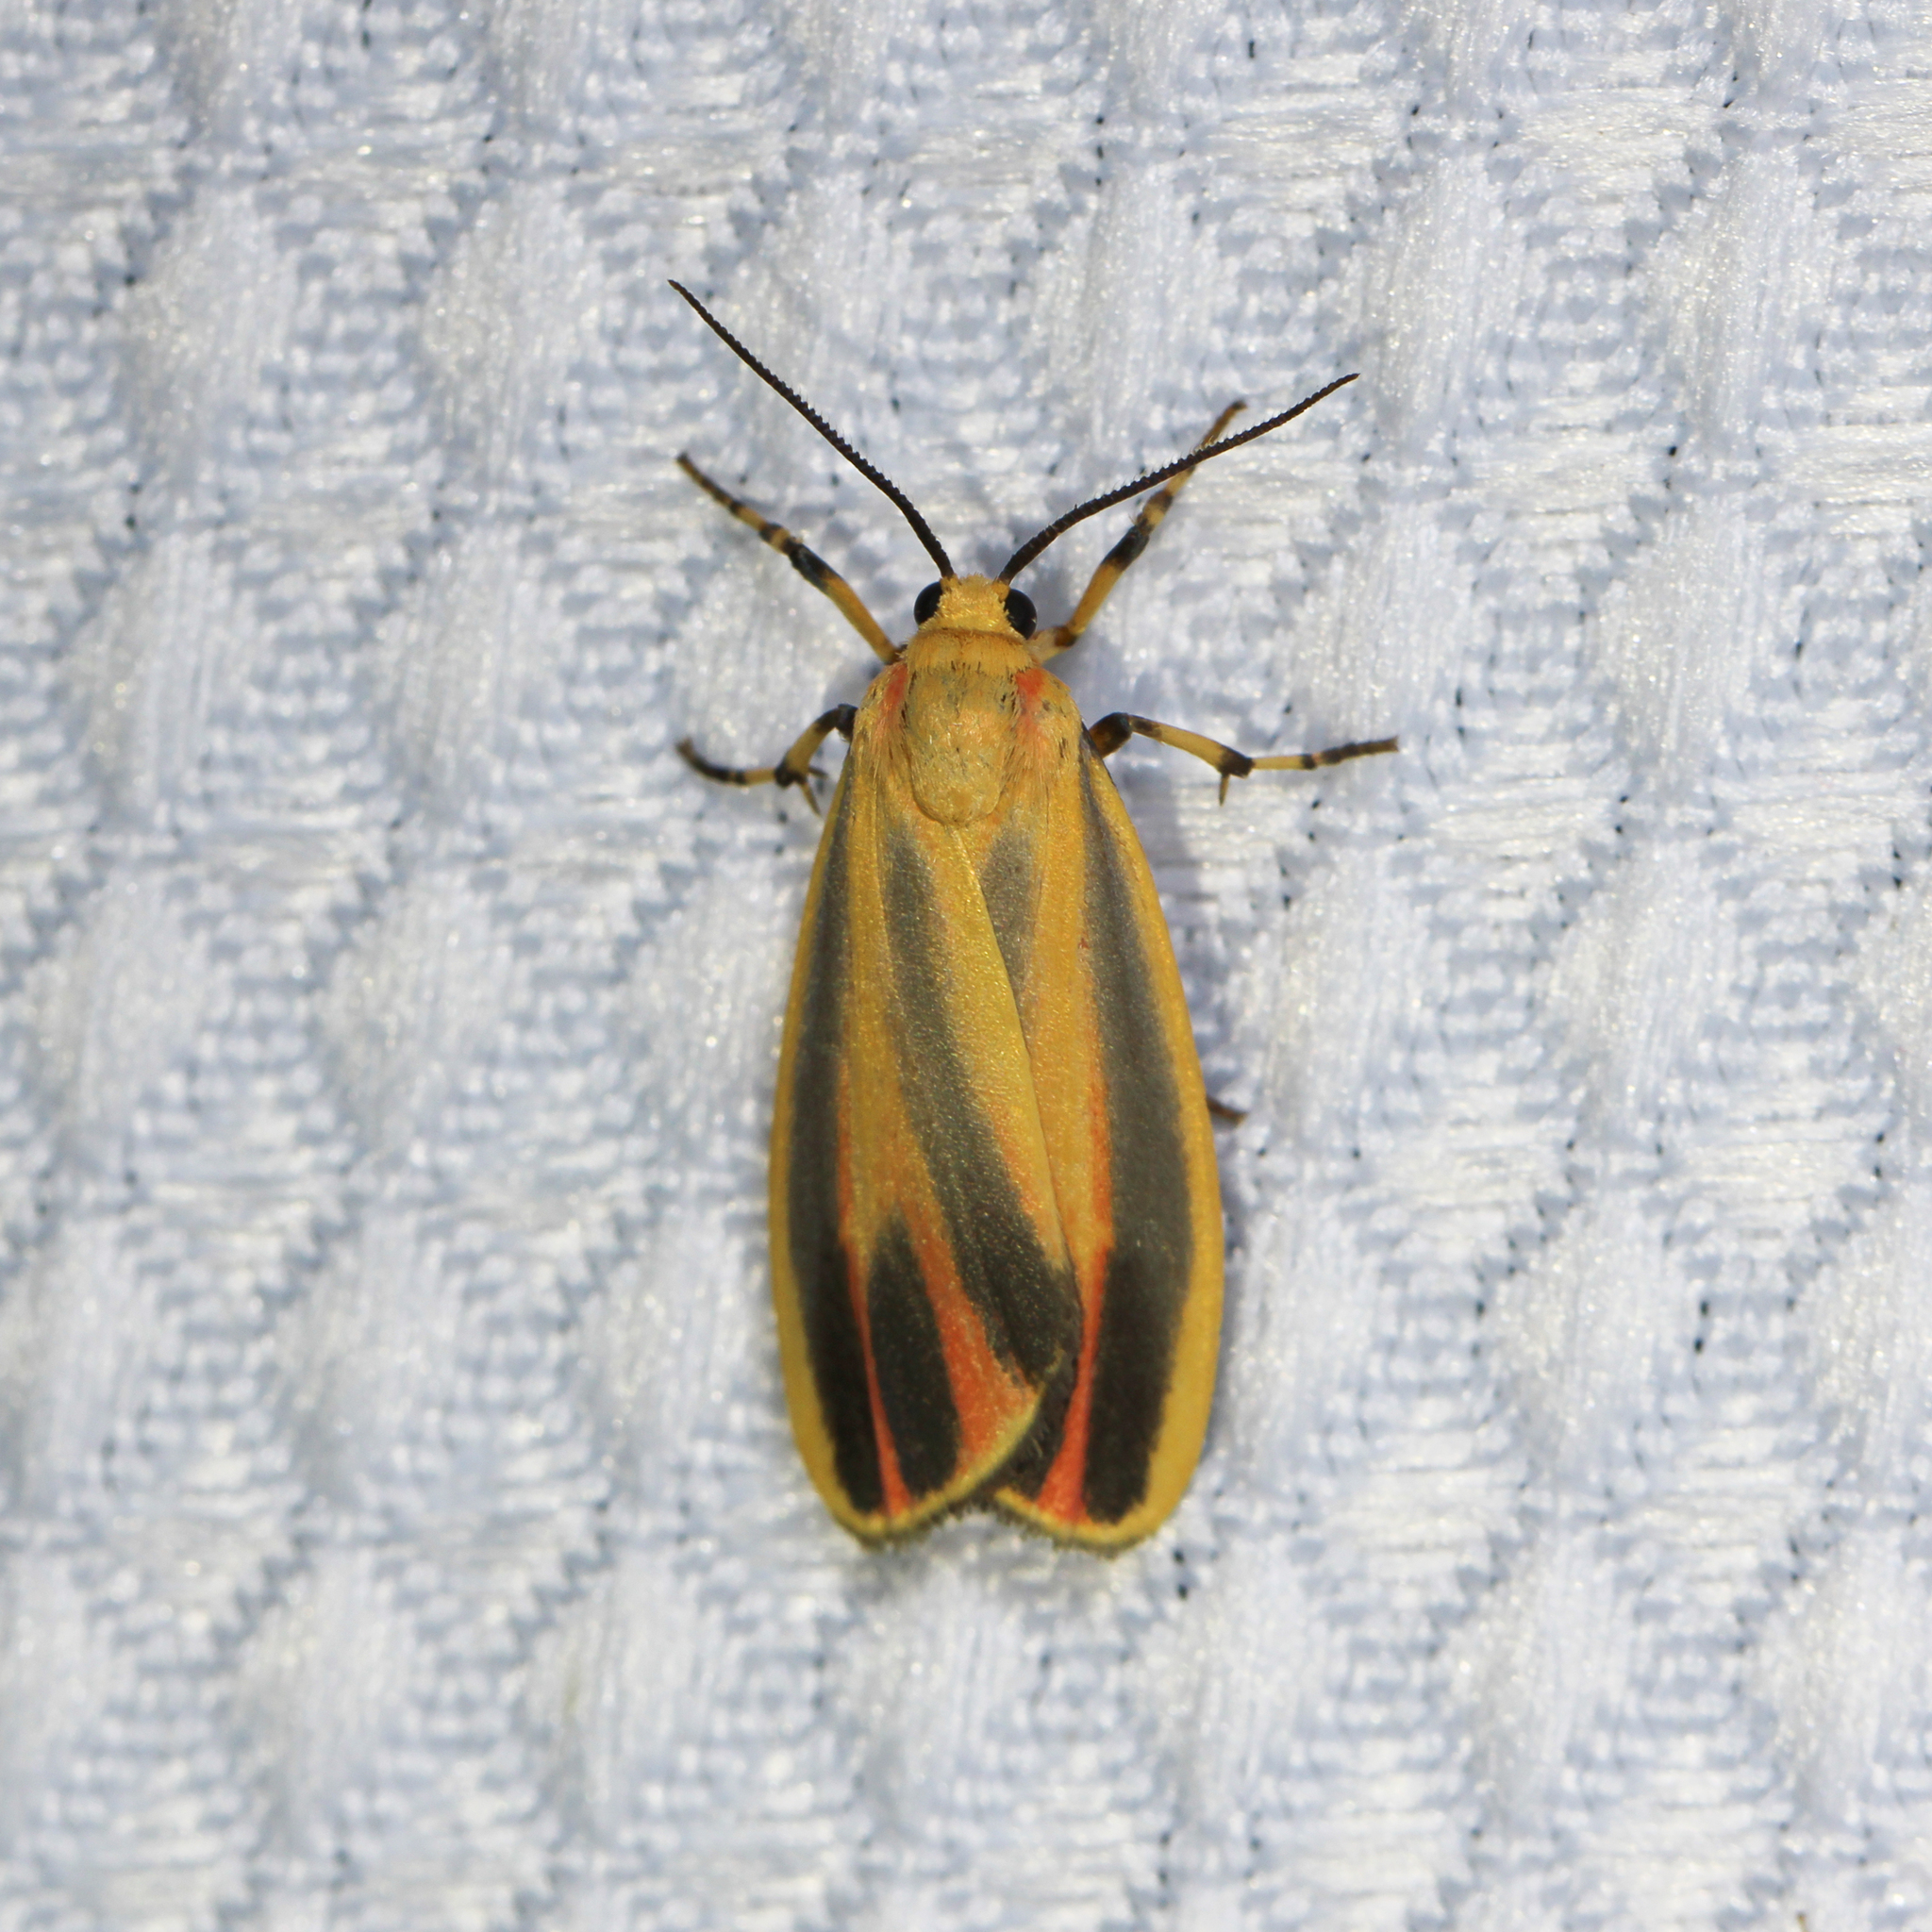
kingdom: Animalia
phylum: Arthropoda
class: Insecta
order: Lepidoptera
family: Erebidae
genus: Hypoprepia
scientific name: Hypoprepia fucosa
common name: Painted lichen moth
